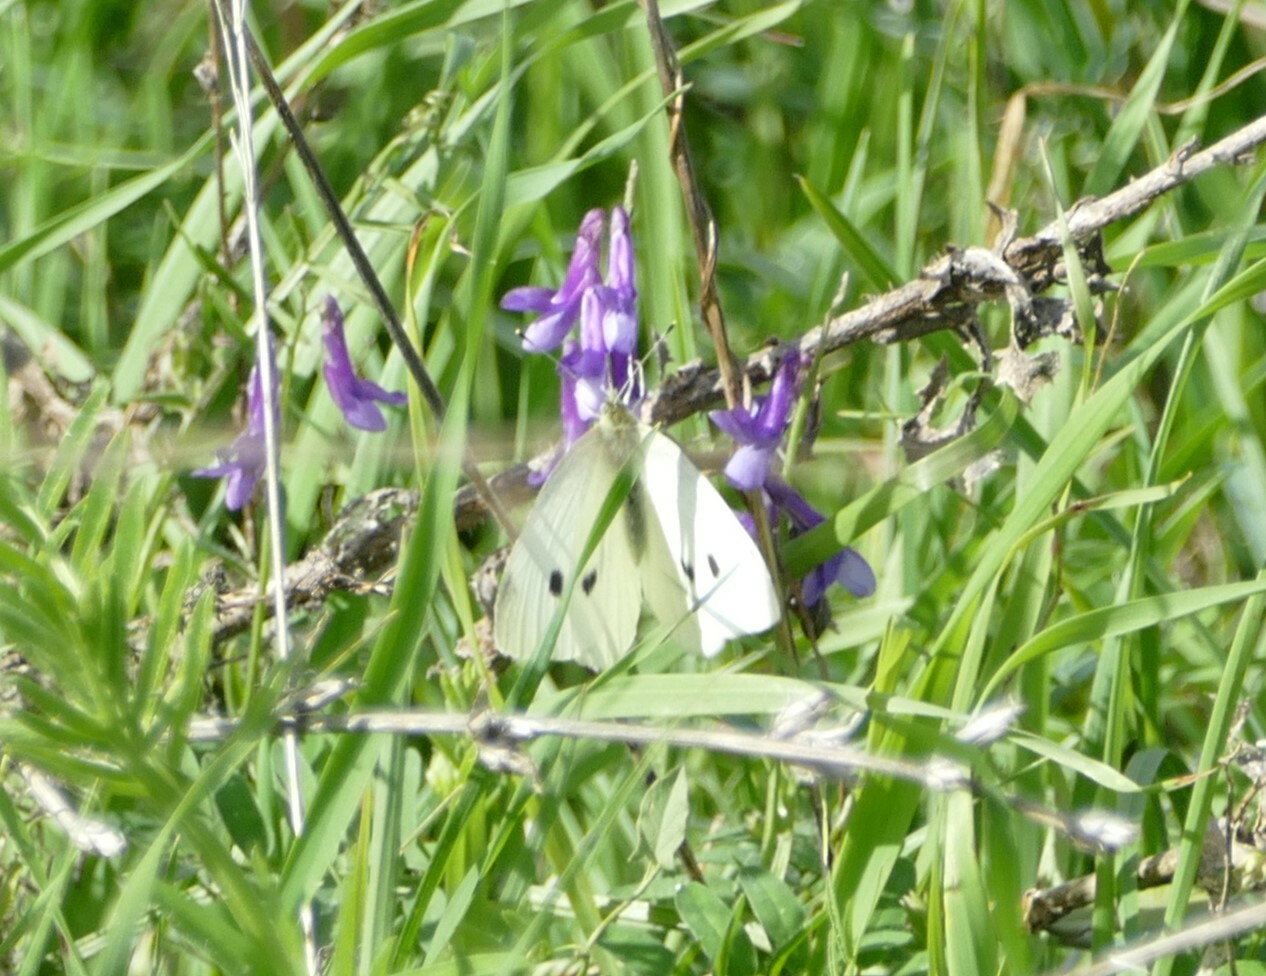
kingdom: Animalia
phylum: Arthropoda
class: Insecta
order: Lepidoptera
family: Pieridae
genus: Pieris
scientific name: Pieris rapae
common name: Small white
